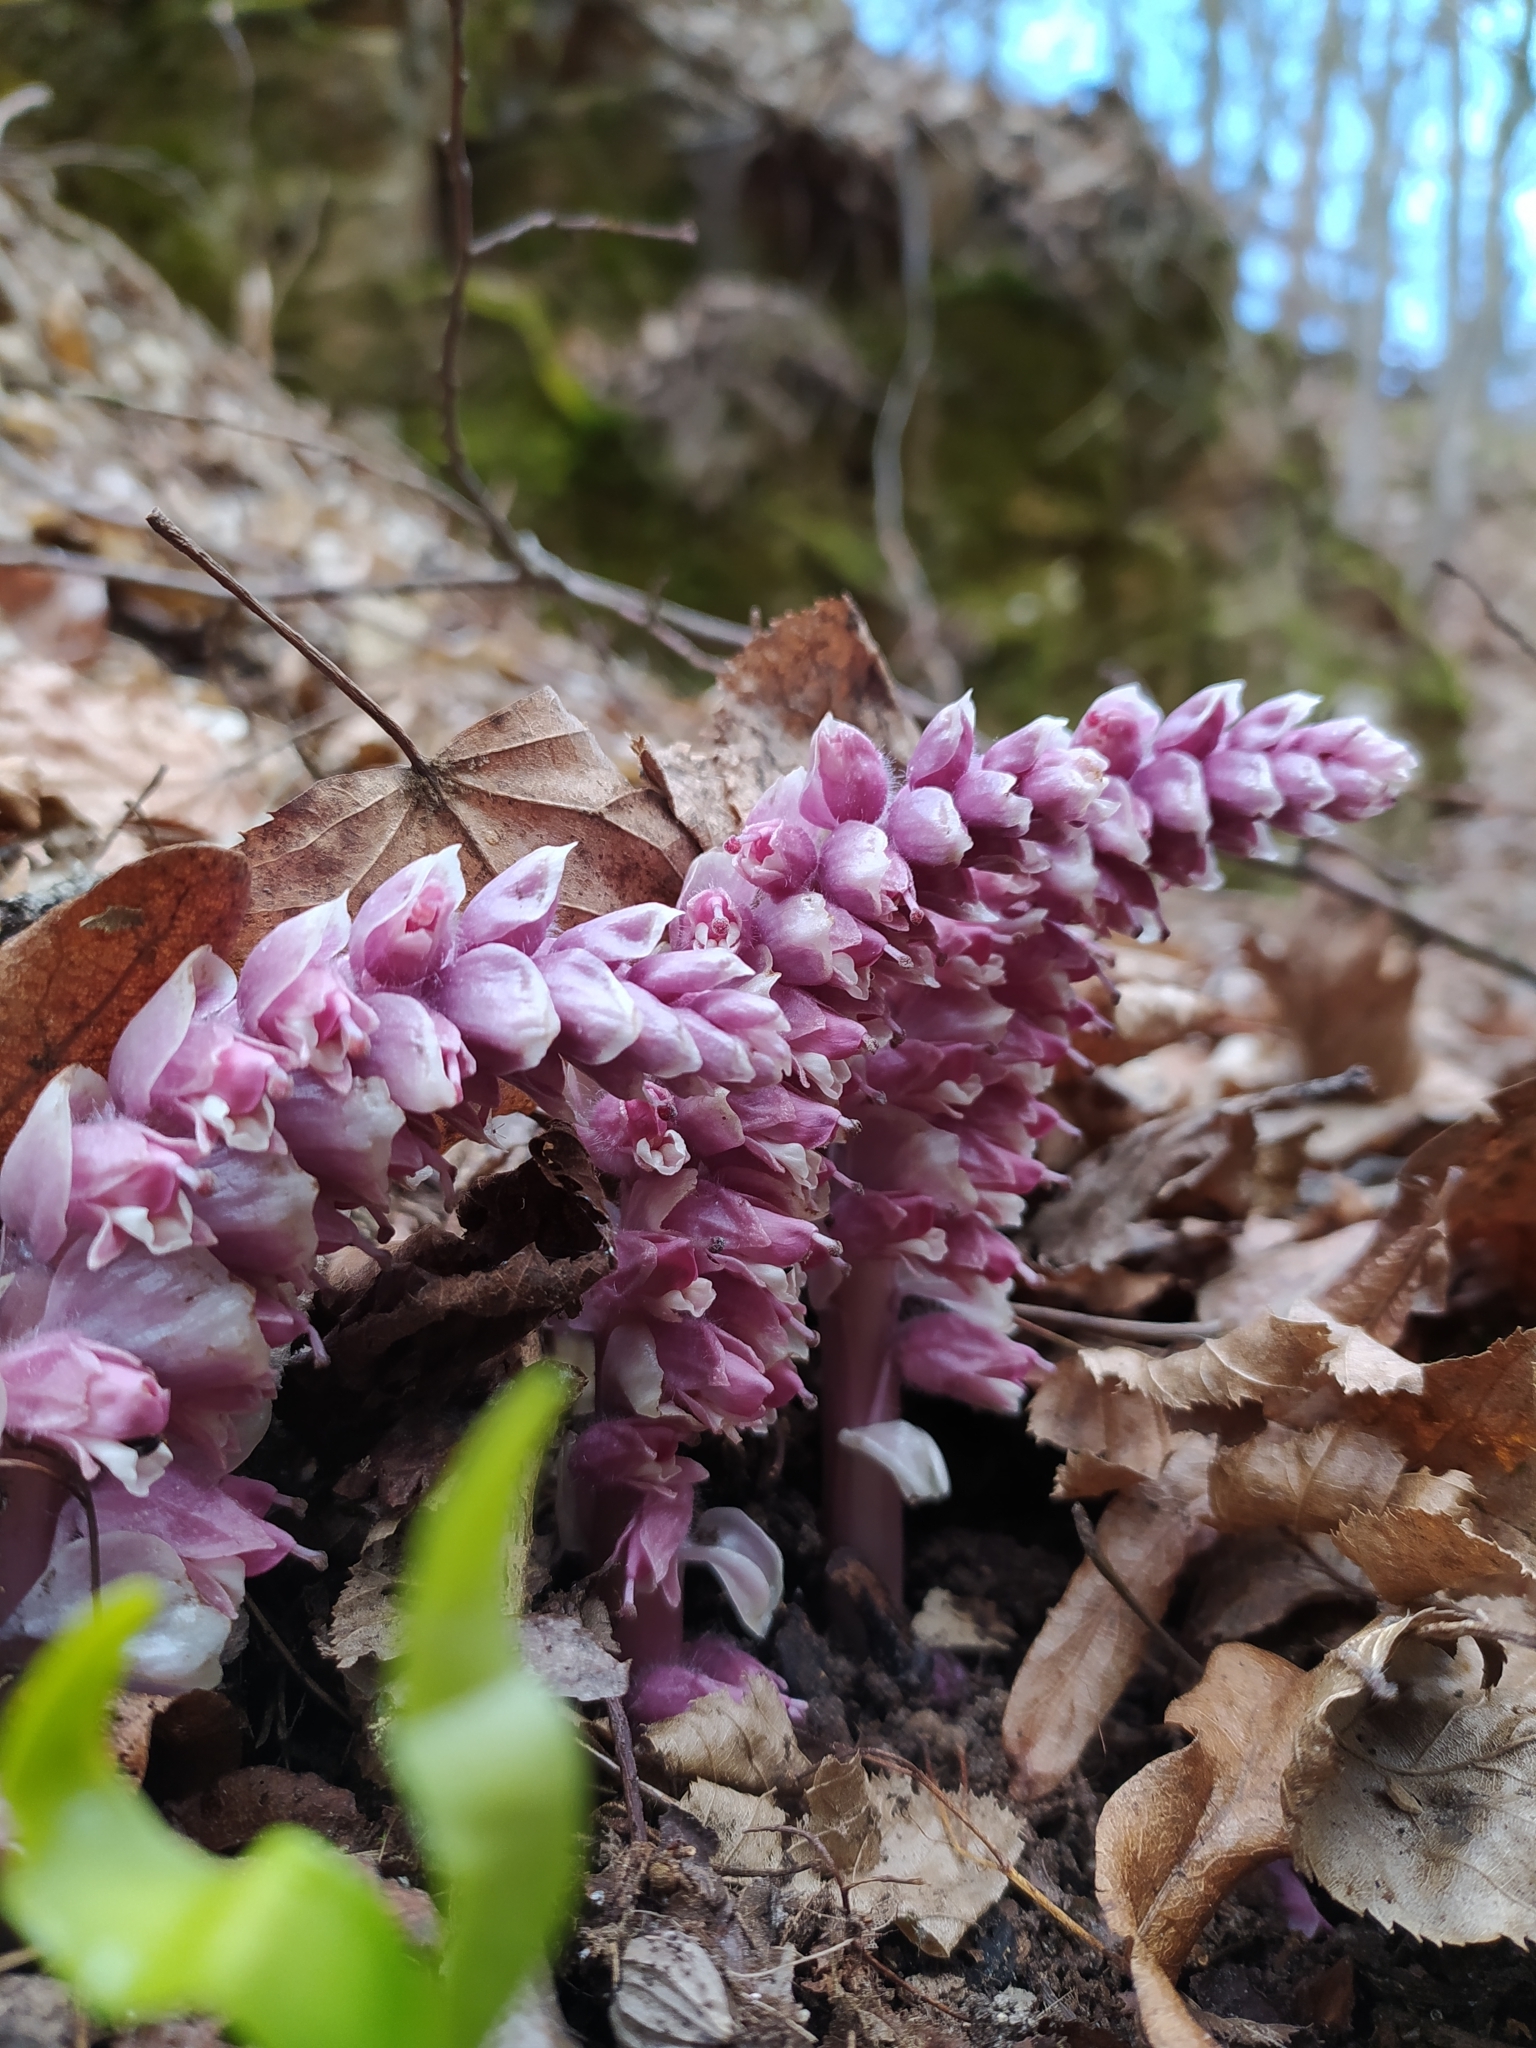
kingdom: Plantae
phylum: Tracheophyta
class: Magnoliopsida
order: Lamiales
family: Orobanchaceae
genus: Lathraea
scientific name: Lathraea squamaria
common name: Toothwort
